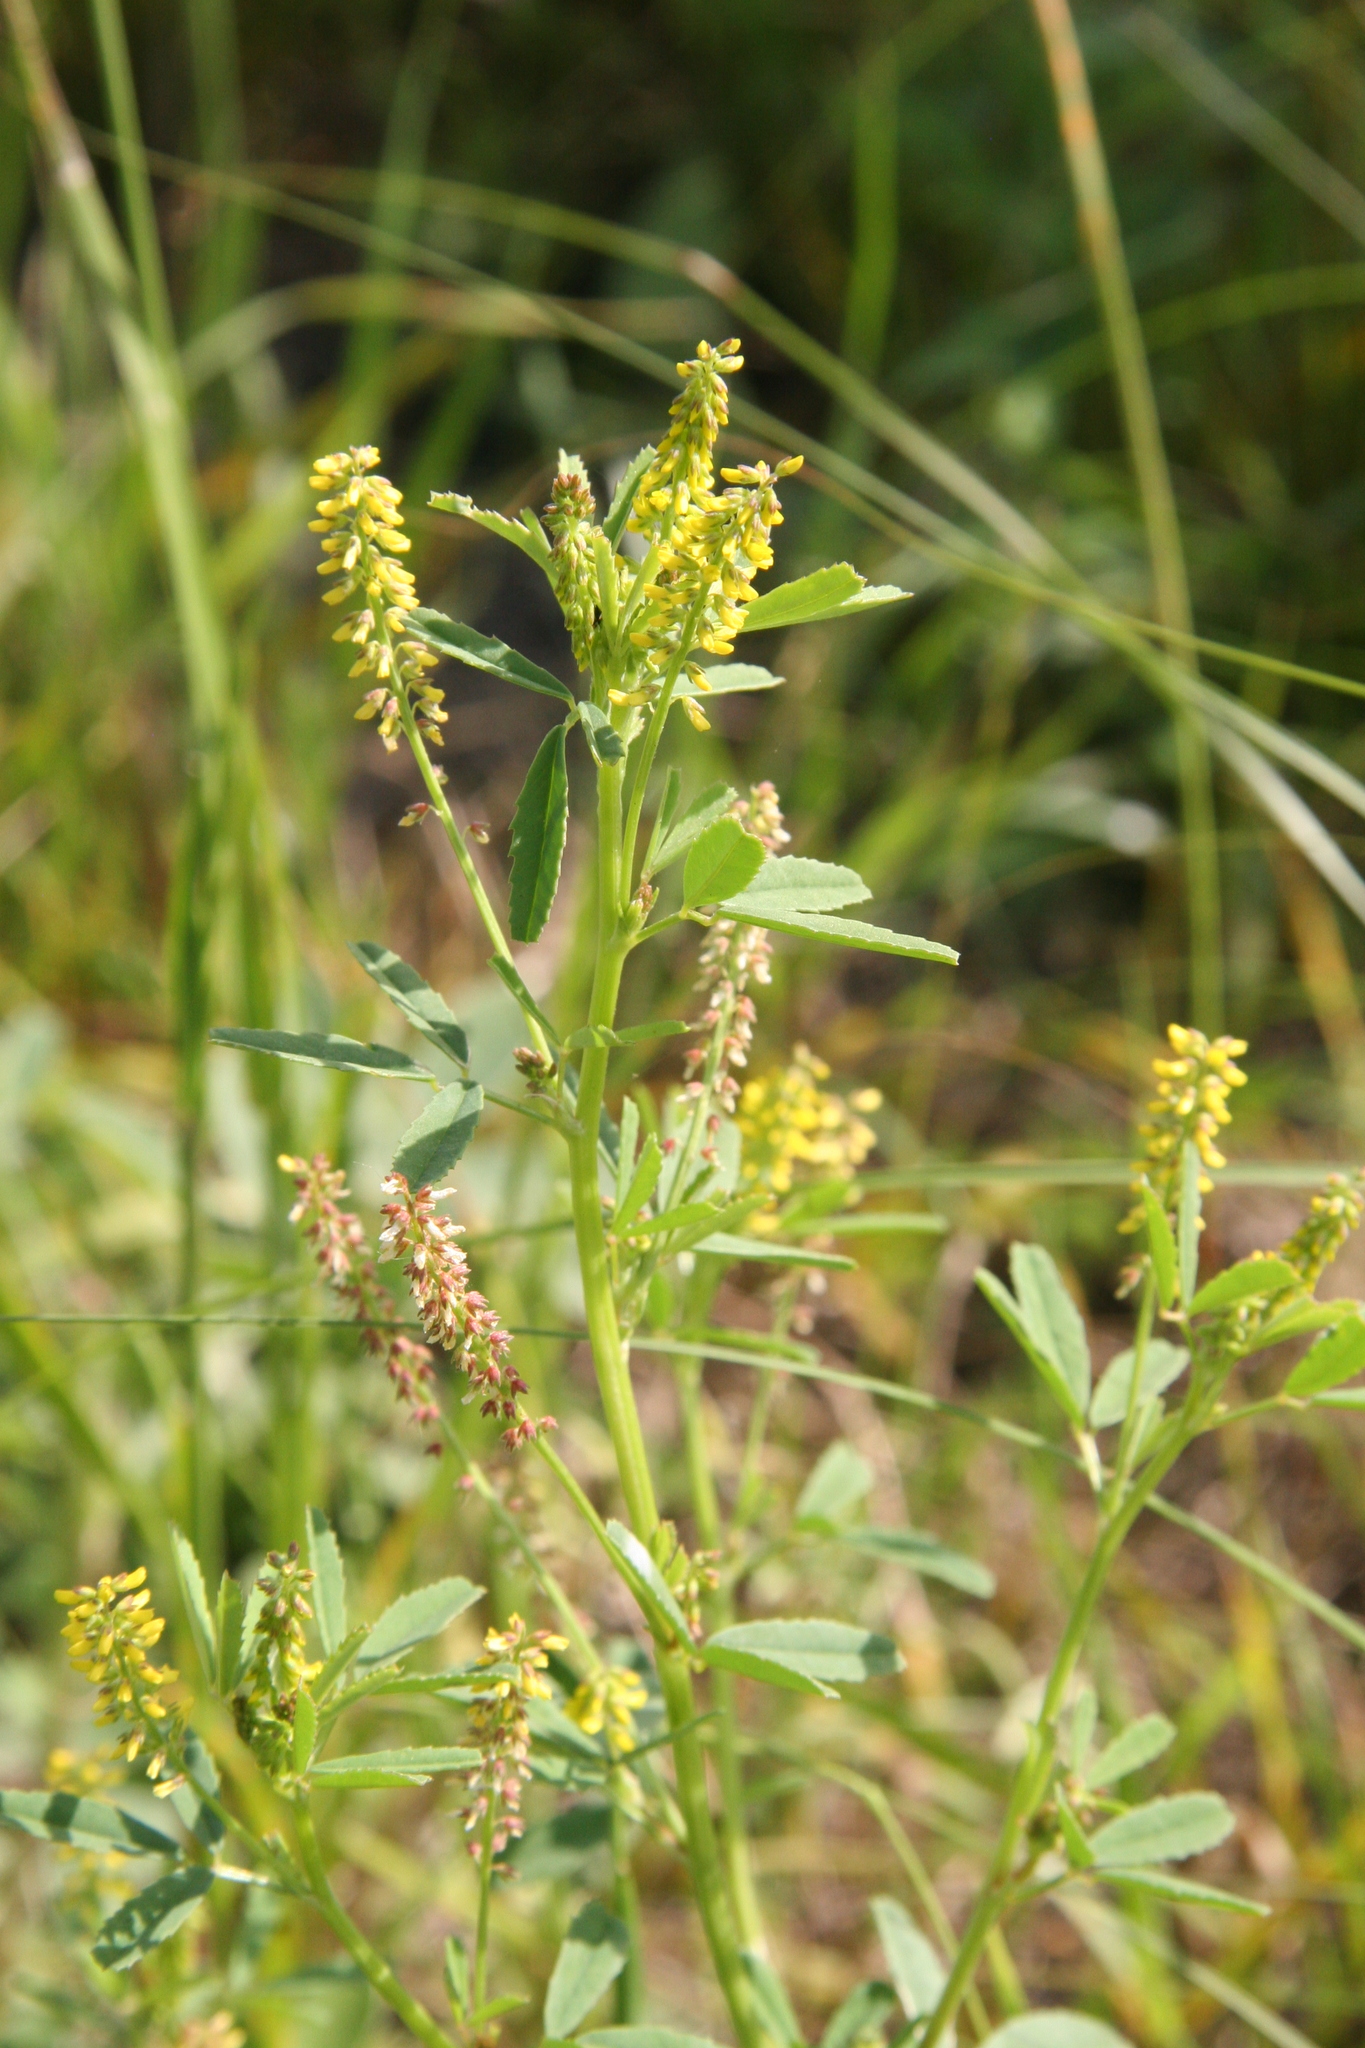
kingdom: Plantae
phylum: Tracheophyta
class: Magnoliopsida
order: Fabales
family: Fabaceae
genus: Melilotus
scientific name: Melilotus indicus
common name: Small melilot
